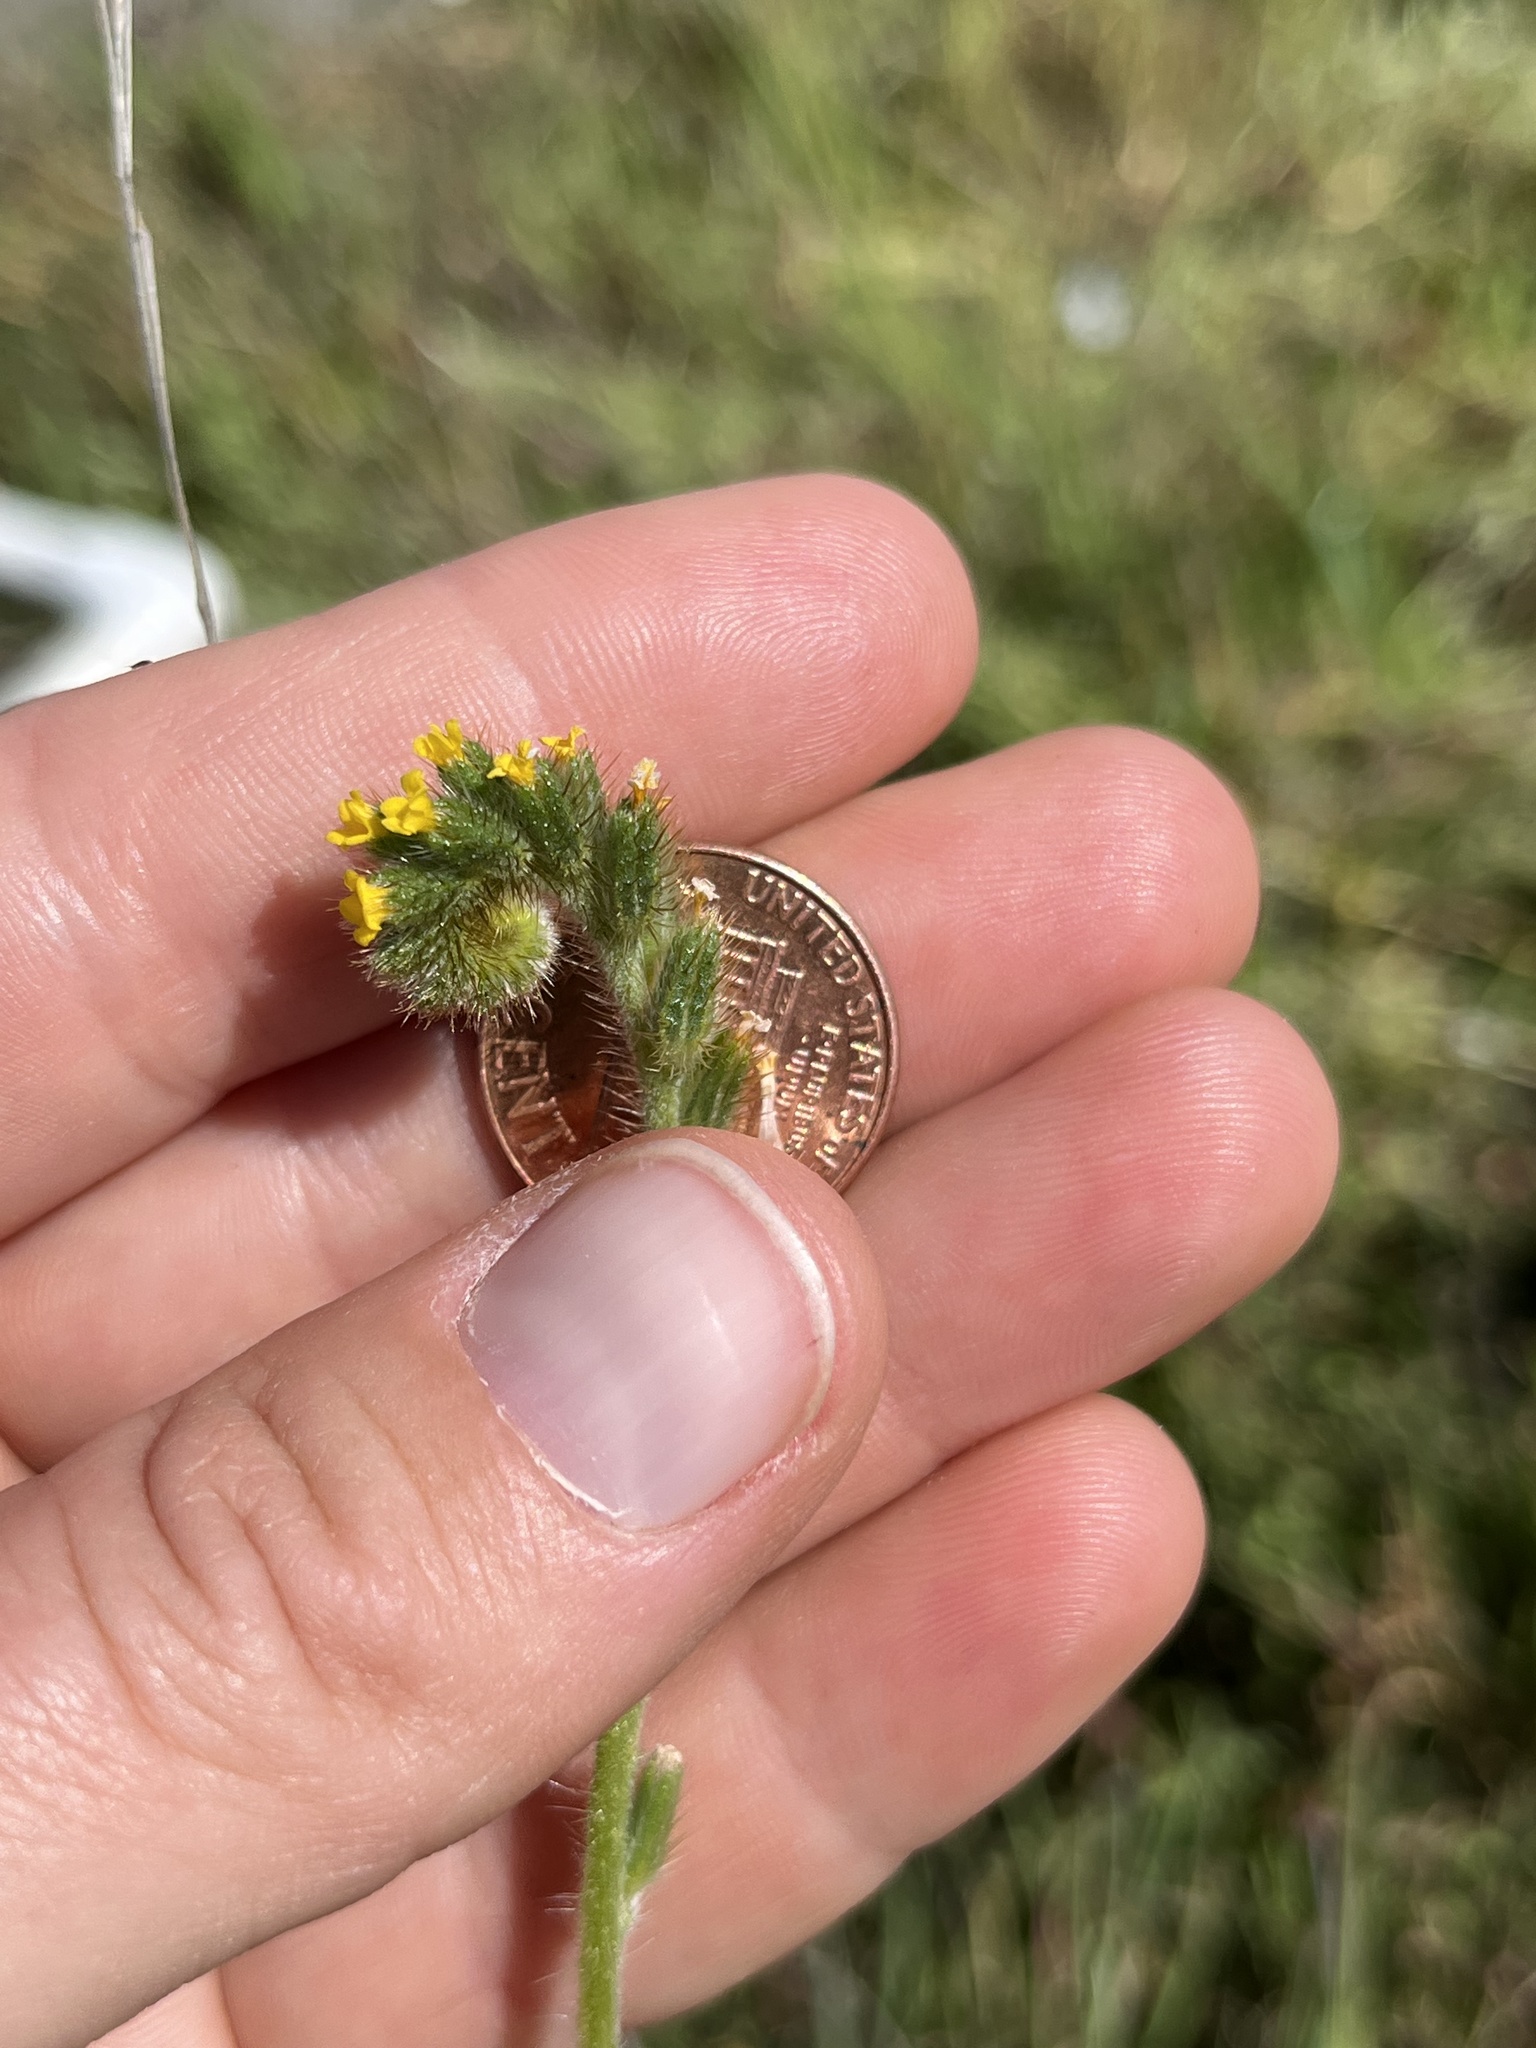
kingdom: Plantae
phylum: Tracheophyta
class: Magnoliopsida
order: Boraginales
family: Boraginaceae
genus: Amsinckia
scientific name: Amsinckia menziesii
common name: Menzies' fiddleneck
